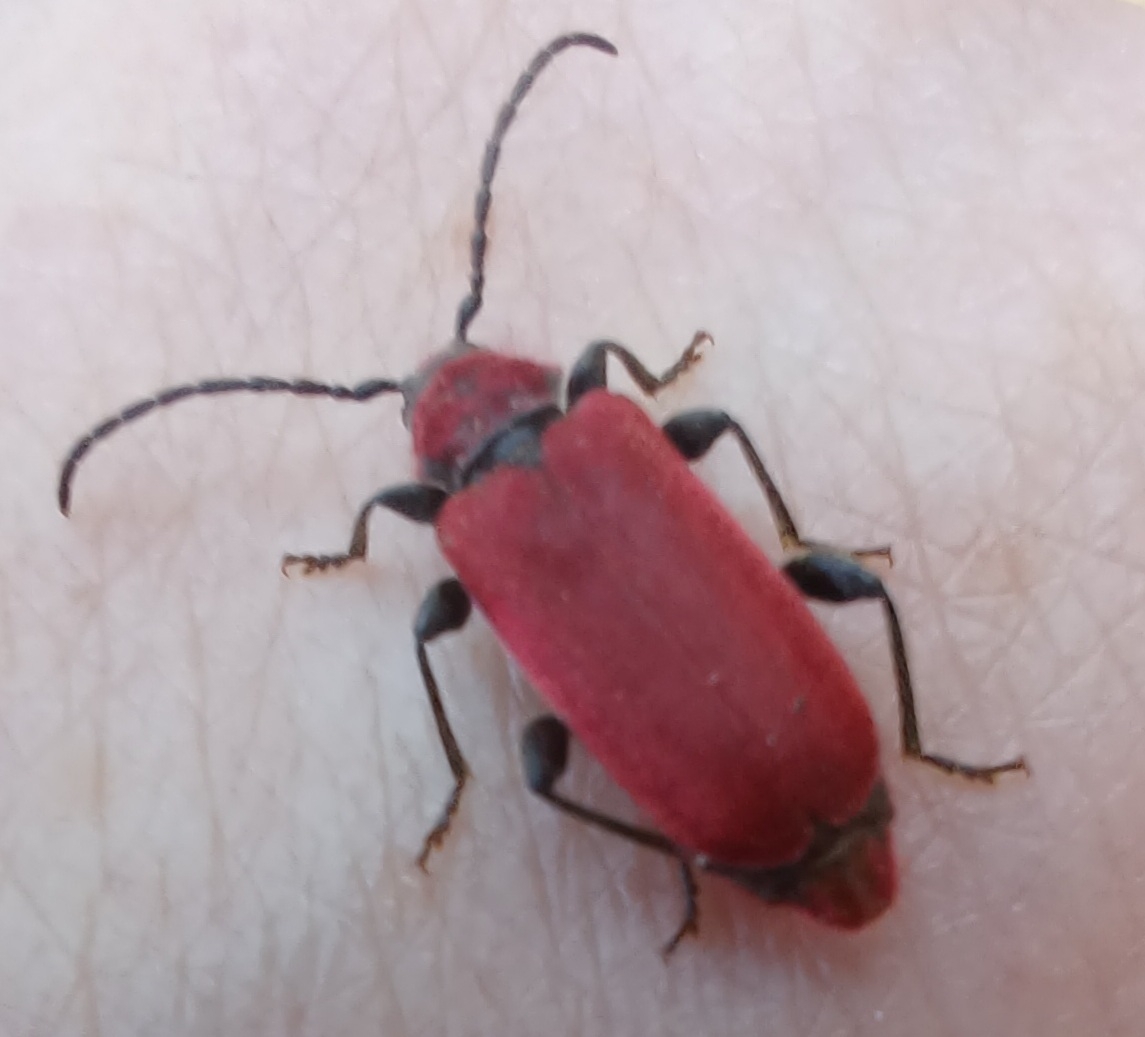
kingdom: Animalia
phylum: Arthropoda
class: Insecta
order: Coleoptera
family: Cerambycidae
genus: Pyrrhidium
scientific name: Pyrrhidium sanguineum
